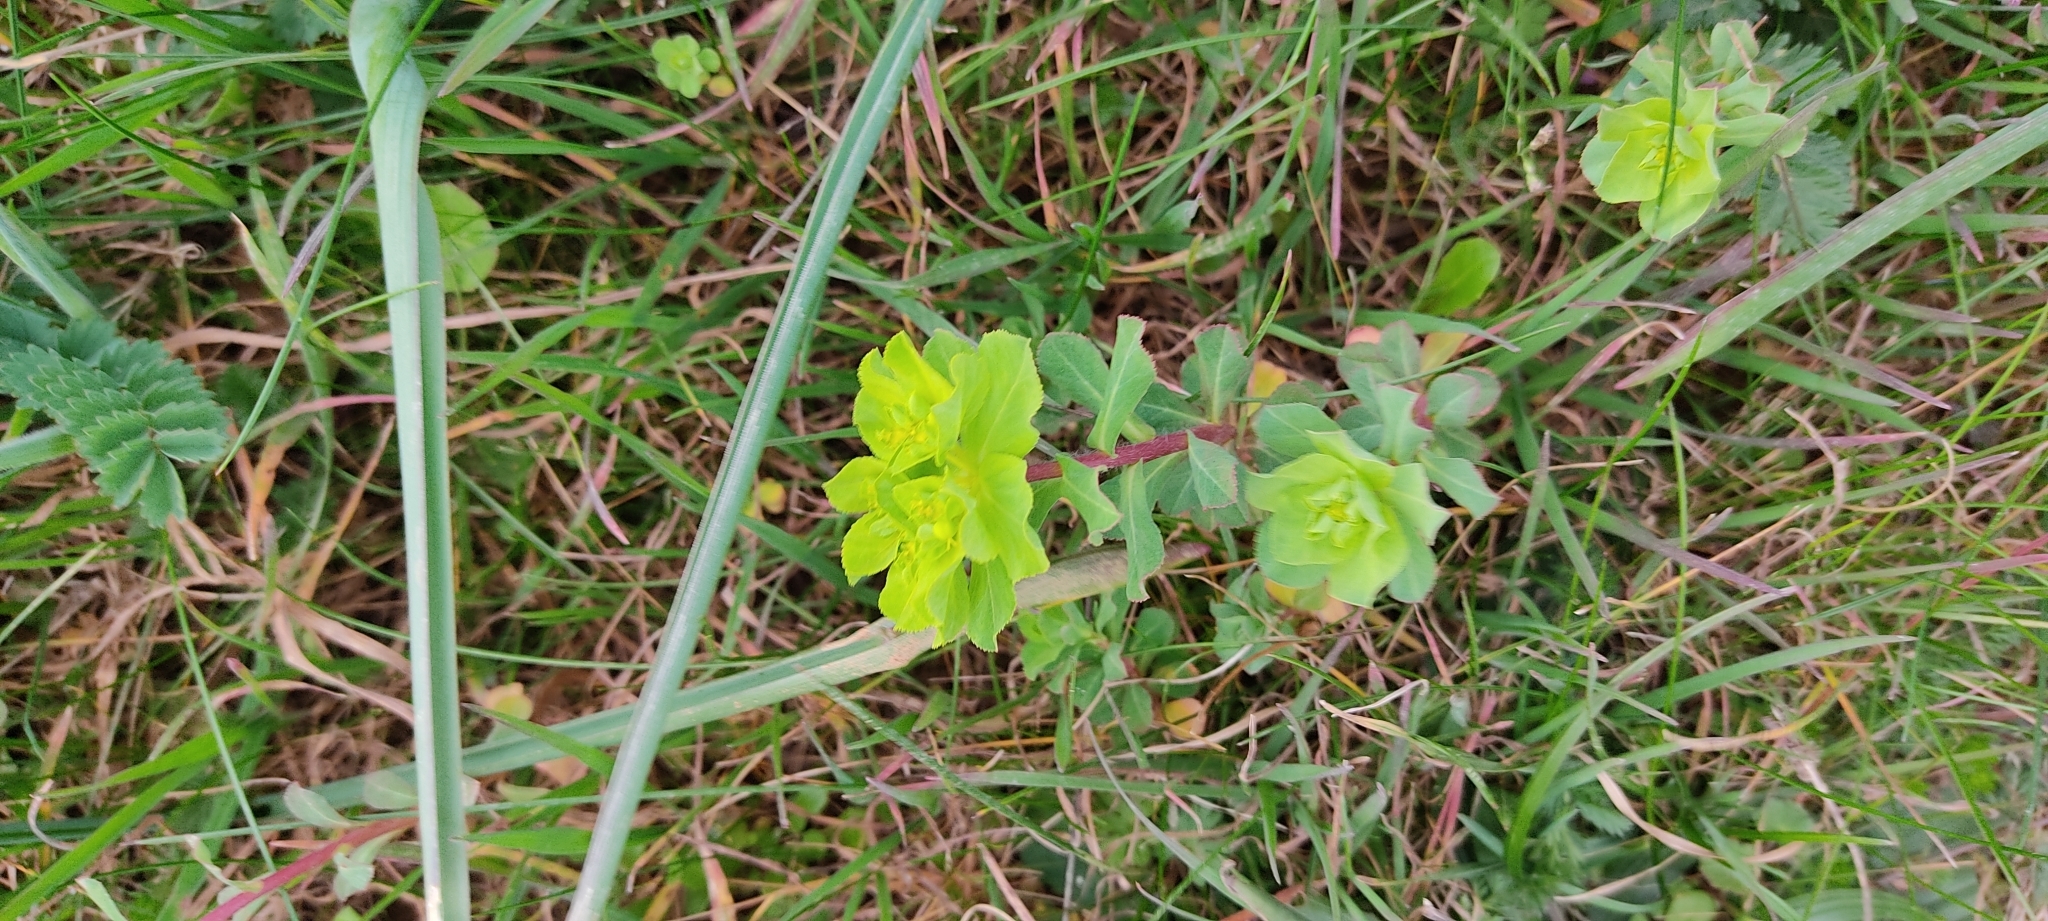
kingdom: Plantae
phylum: Tracheophyta
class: Magnoliopsida
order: Malpighiales
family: Euphorbiaceae
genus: Euphorbia
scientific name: Euphorbia helioscopia
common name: Sun spurge
